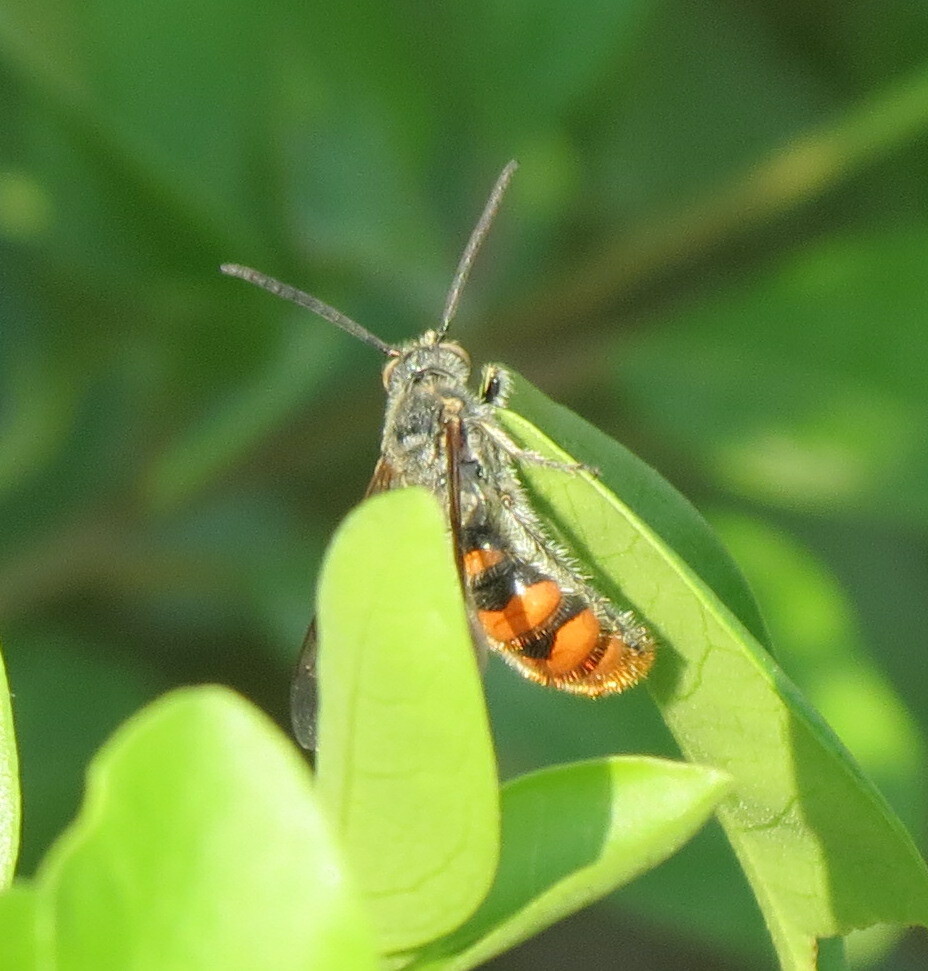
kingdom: Animalia
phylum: Arthropoda
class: Insecta
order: Hymenoptera
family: Scoliidae
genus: Campsomeriella
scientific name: Campsomeriella thoracica
